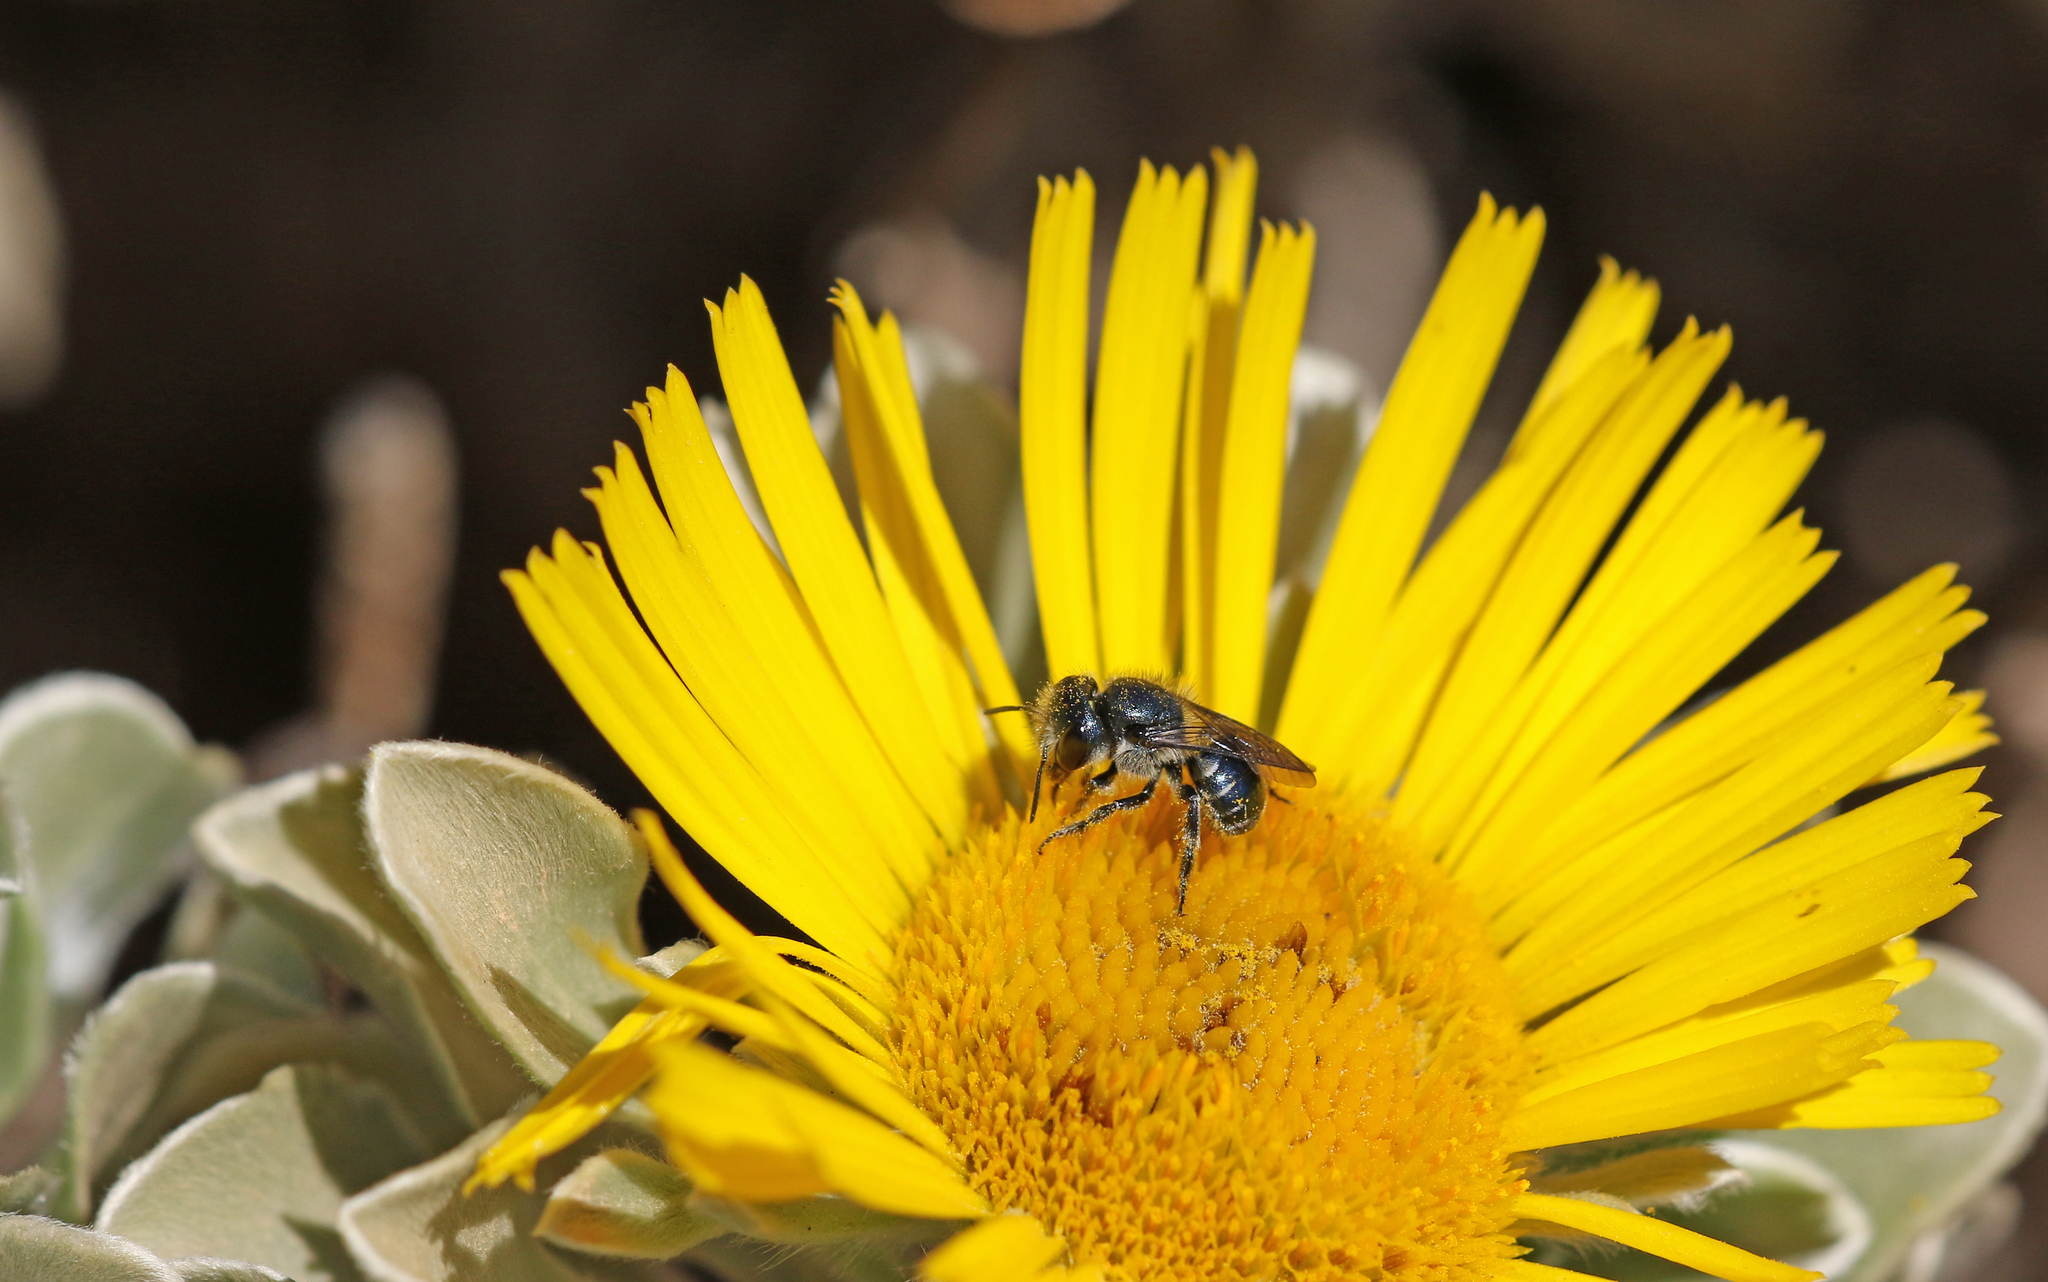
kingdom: Animalia
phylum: Arthropoda
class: Insecta
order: Hymenoptera
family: Megachilidae
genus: Osmia
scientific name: Osmia submicans
